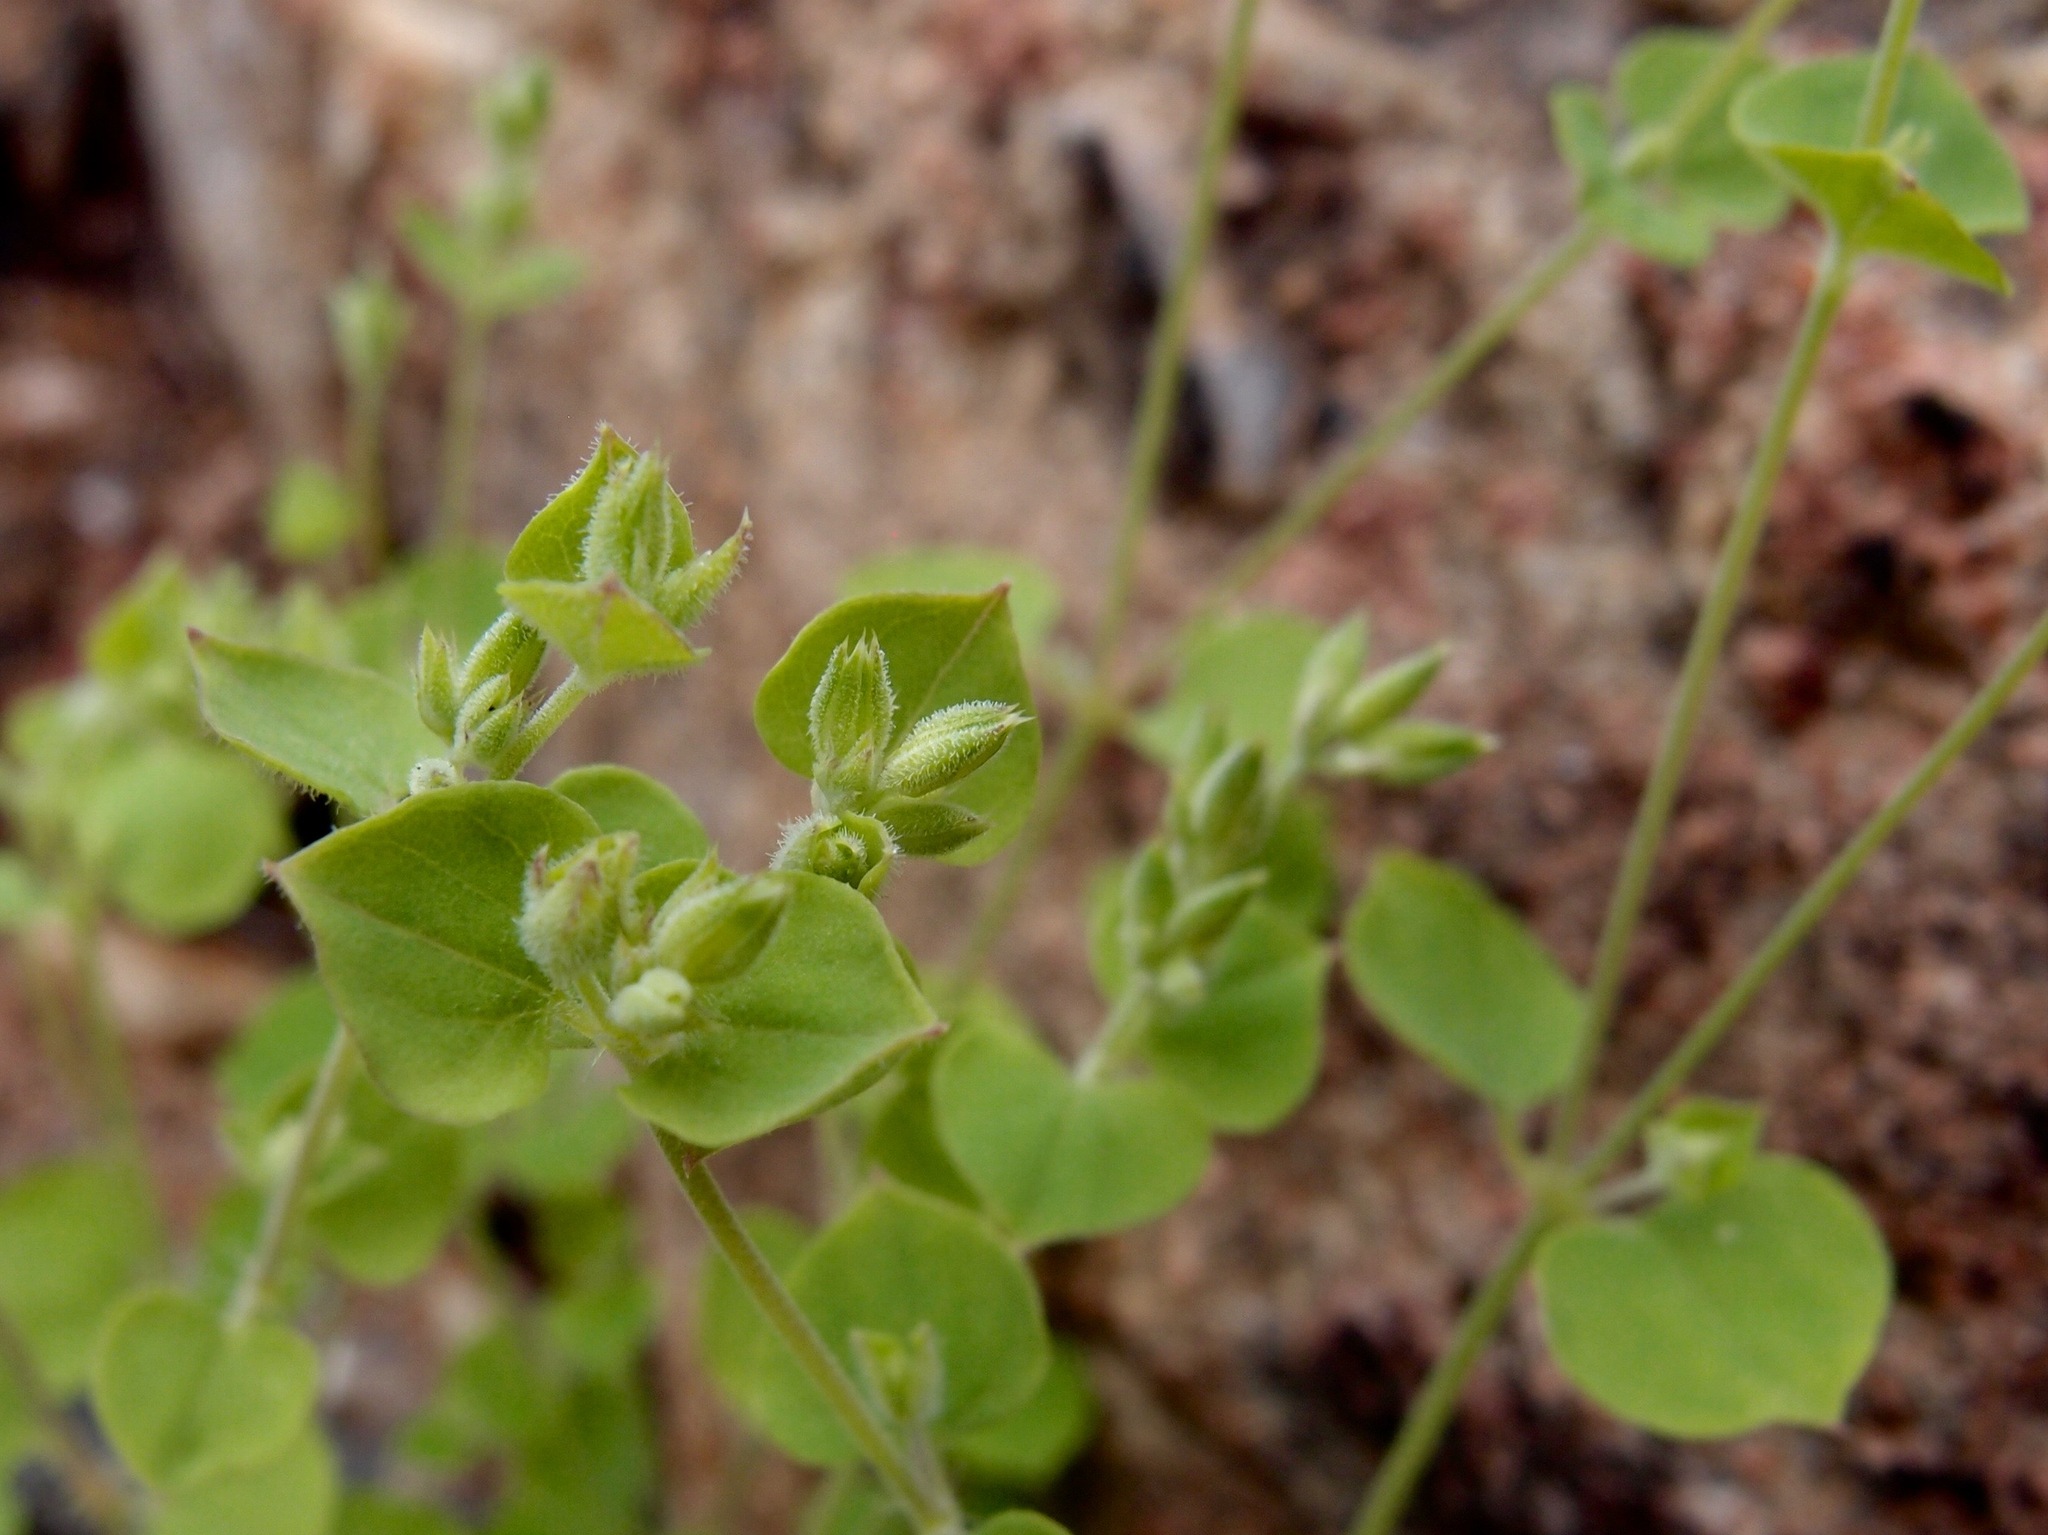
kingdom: Plantae
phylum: Tracheophyta
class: Magnoliopsida
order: Caryophyllales
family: Caryophyllaceae
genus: Drymaria
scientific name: Drymaria glandulosa
